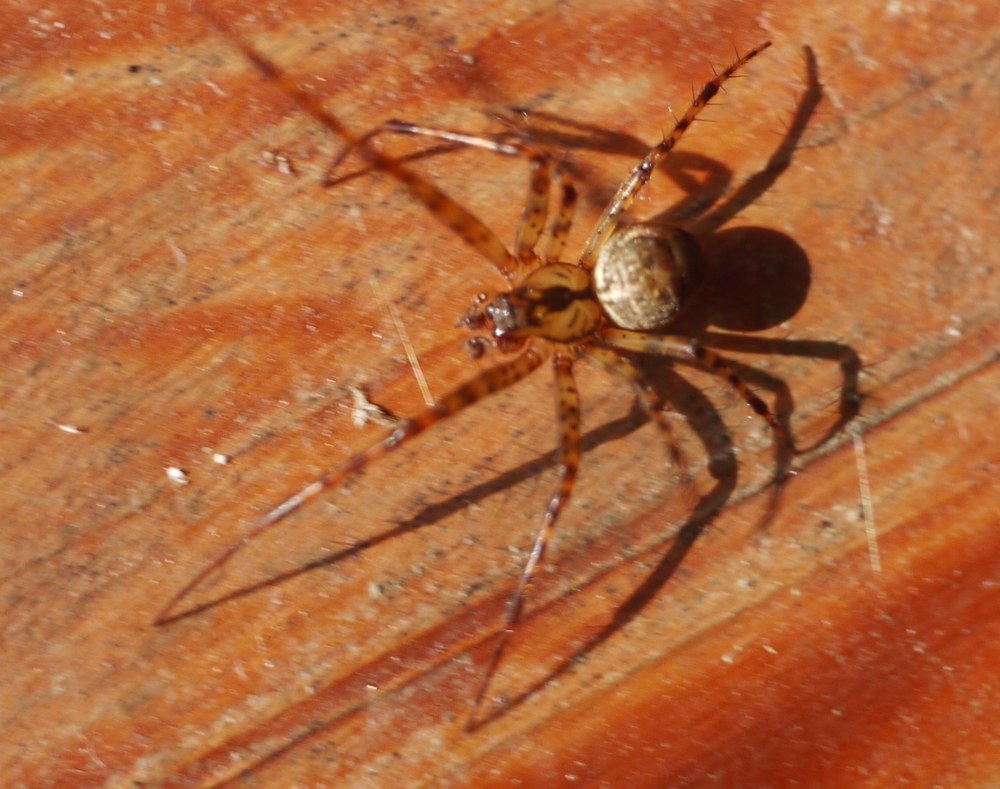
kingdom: Animalia
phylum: Arthropoda
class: Arachnida
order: Araneae
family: Tetragnathidae
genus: Metellina
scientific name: Metellina merianae
